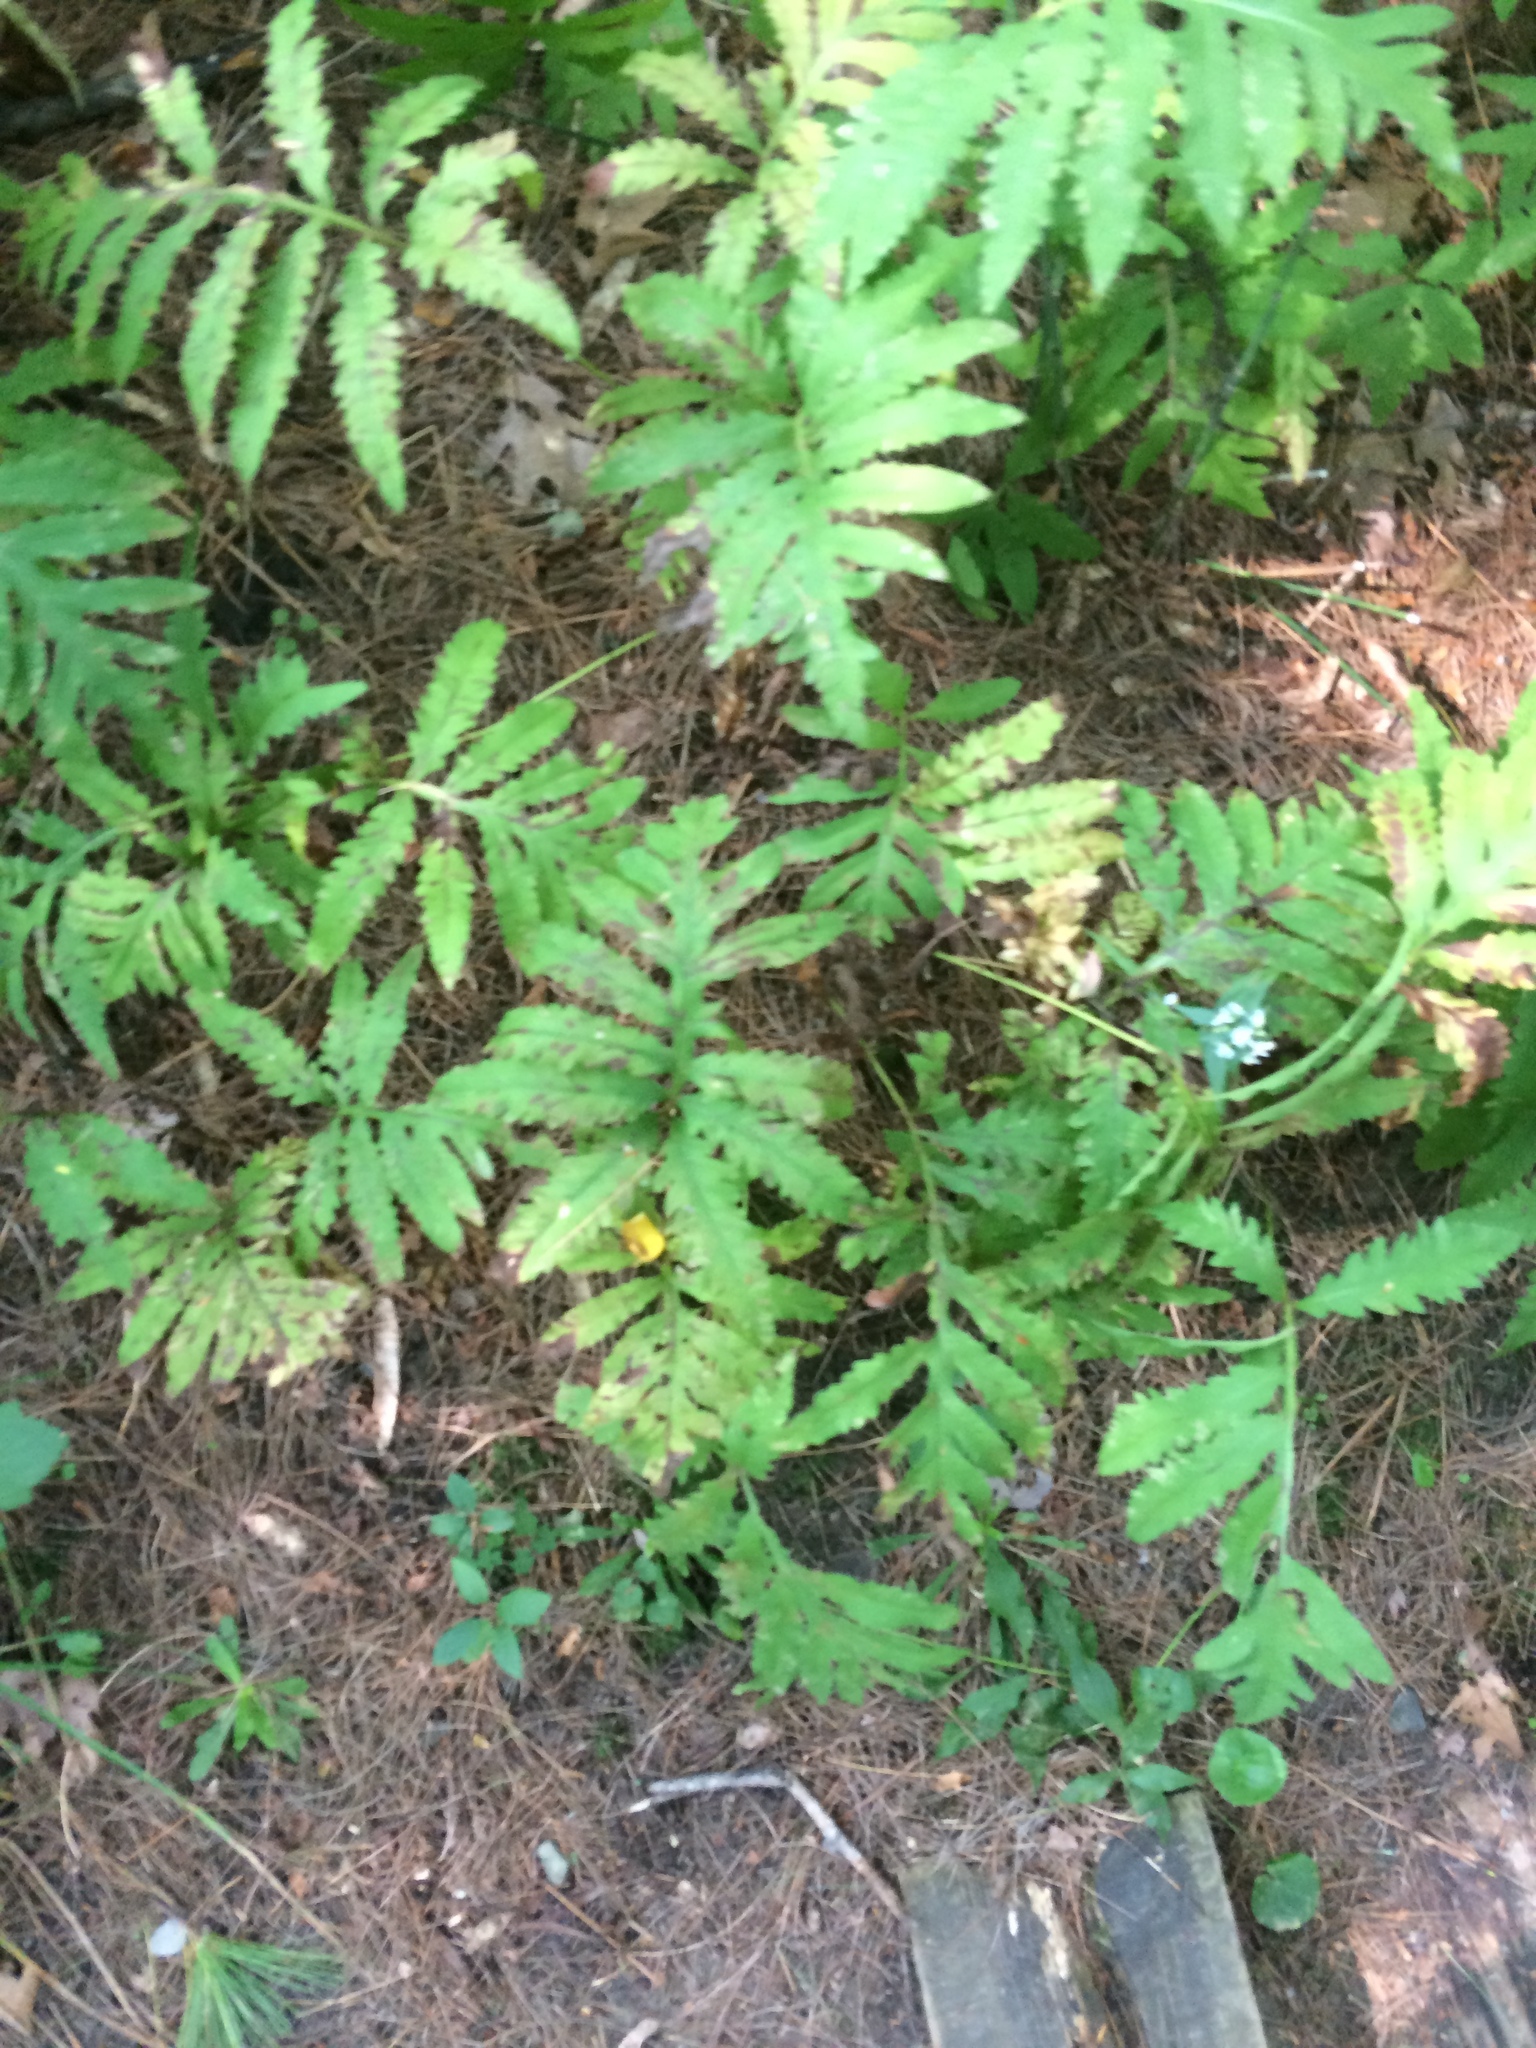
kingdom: Plantae
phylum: Tracheophyta
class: Polypodiopsida
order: Polypodiales
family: Onocleaceae
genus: Onoclea
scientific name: Onoclea sensibilis
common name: Sensitive fern
